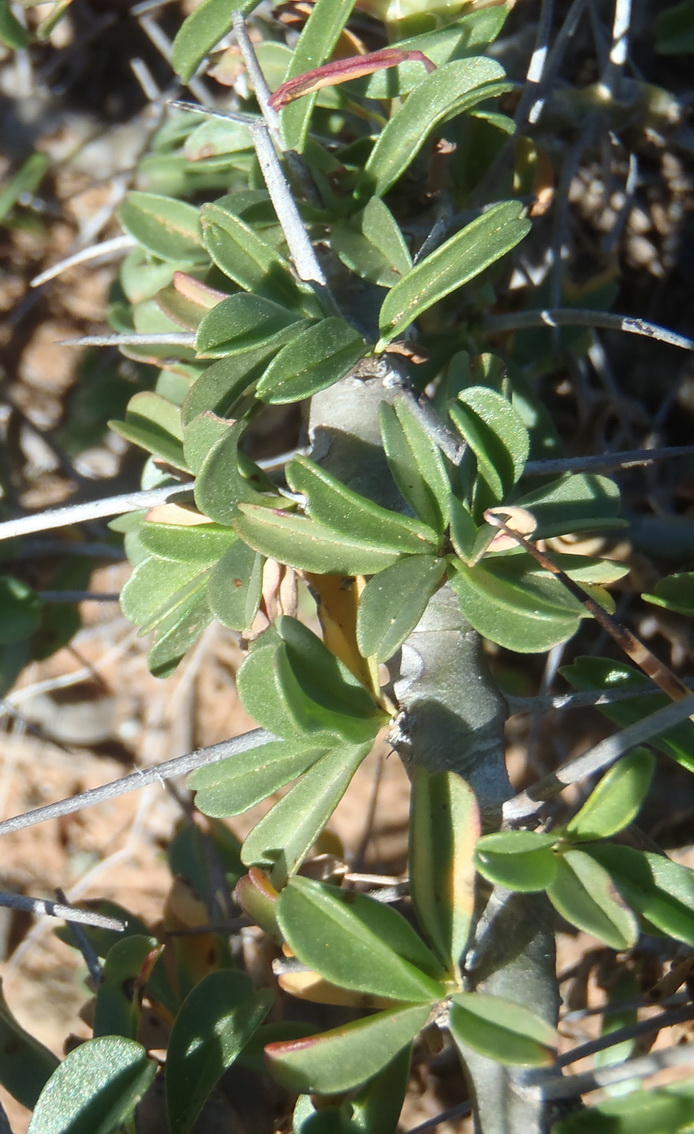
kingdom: Plantae
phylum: Tracheophyta
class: Magnoliopsida
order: Geraniales
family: Geraniaceae
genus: Monsonia
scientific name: Monsonia camdeboensis
